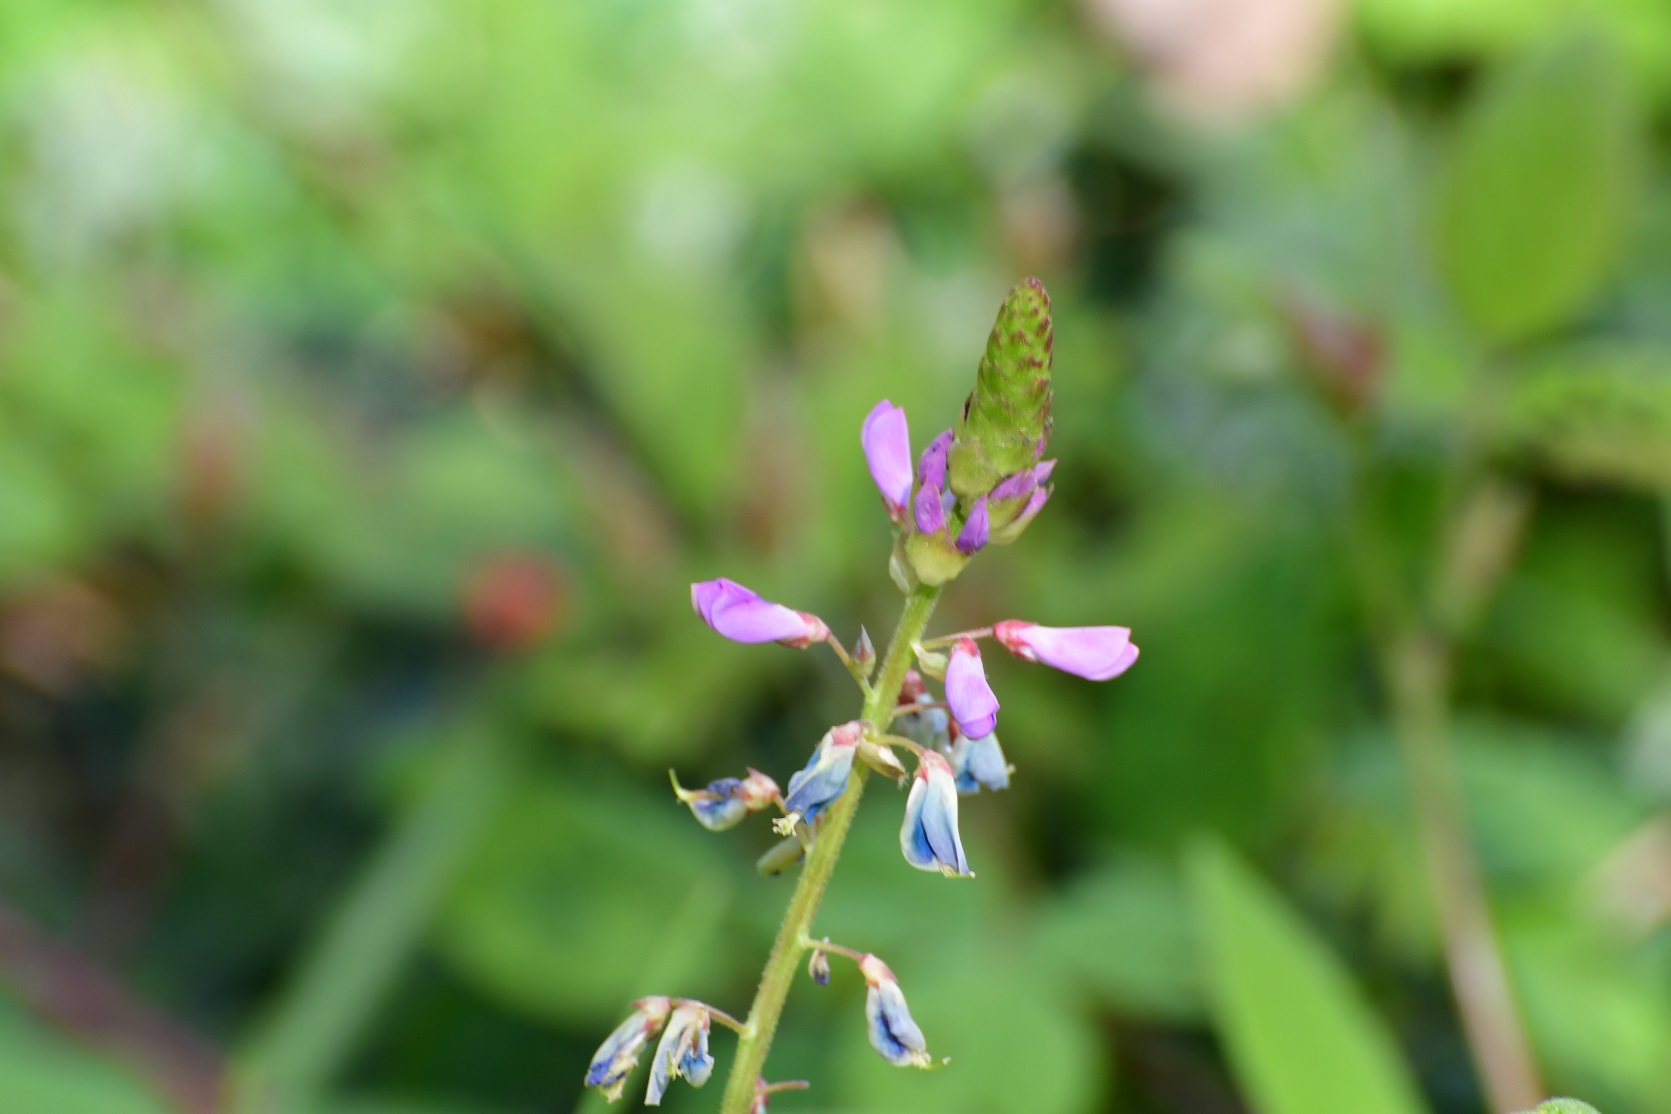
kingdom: Plantae
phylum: Tracheophyta
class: Magnoliopsida
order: Fabales
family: Fabaceae
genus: Desmodium
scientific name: Desmodium pringlei
